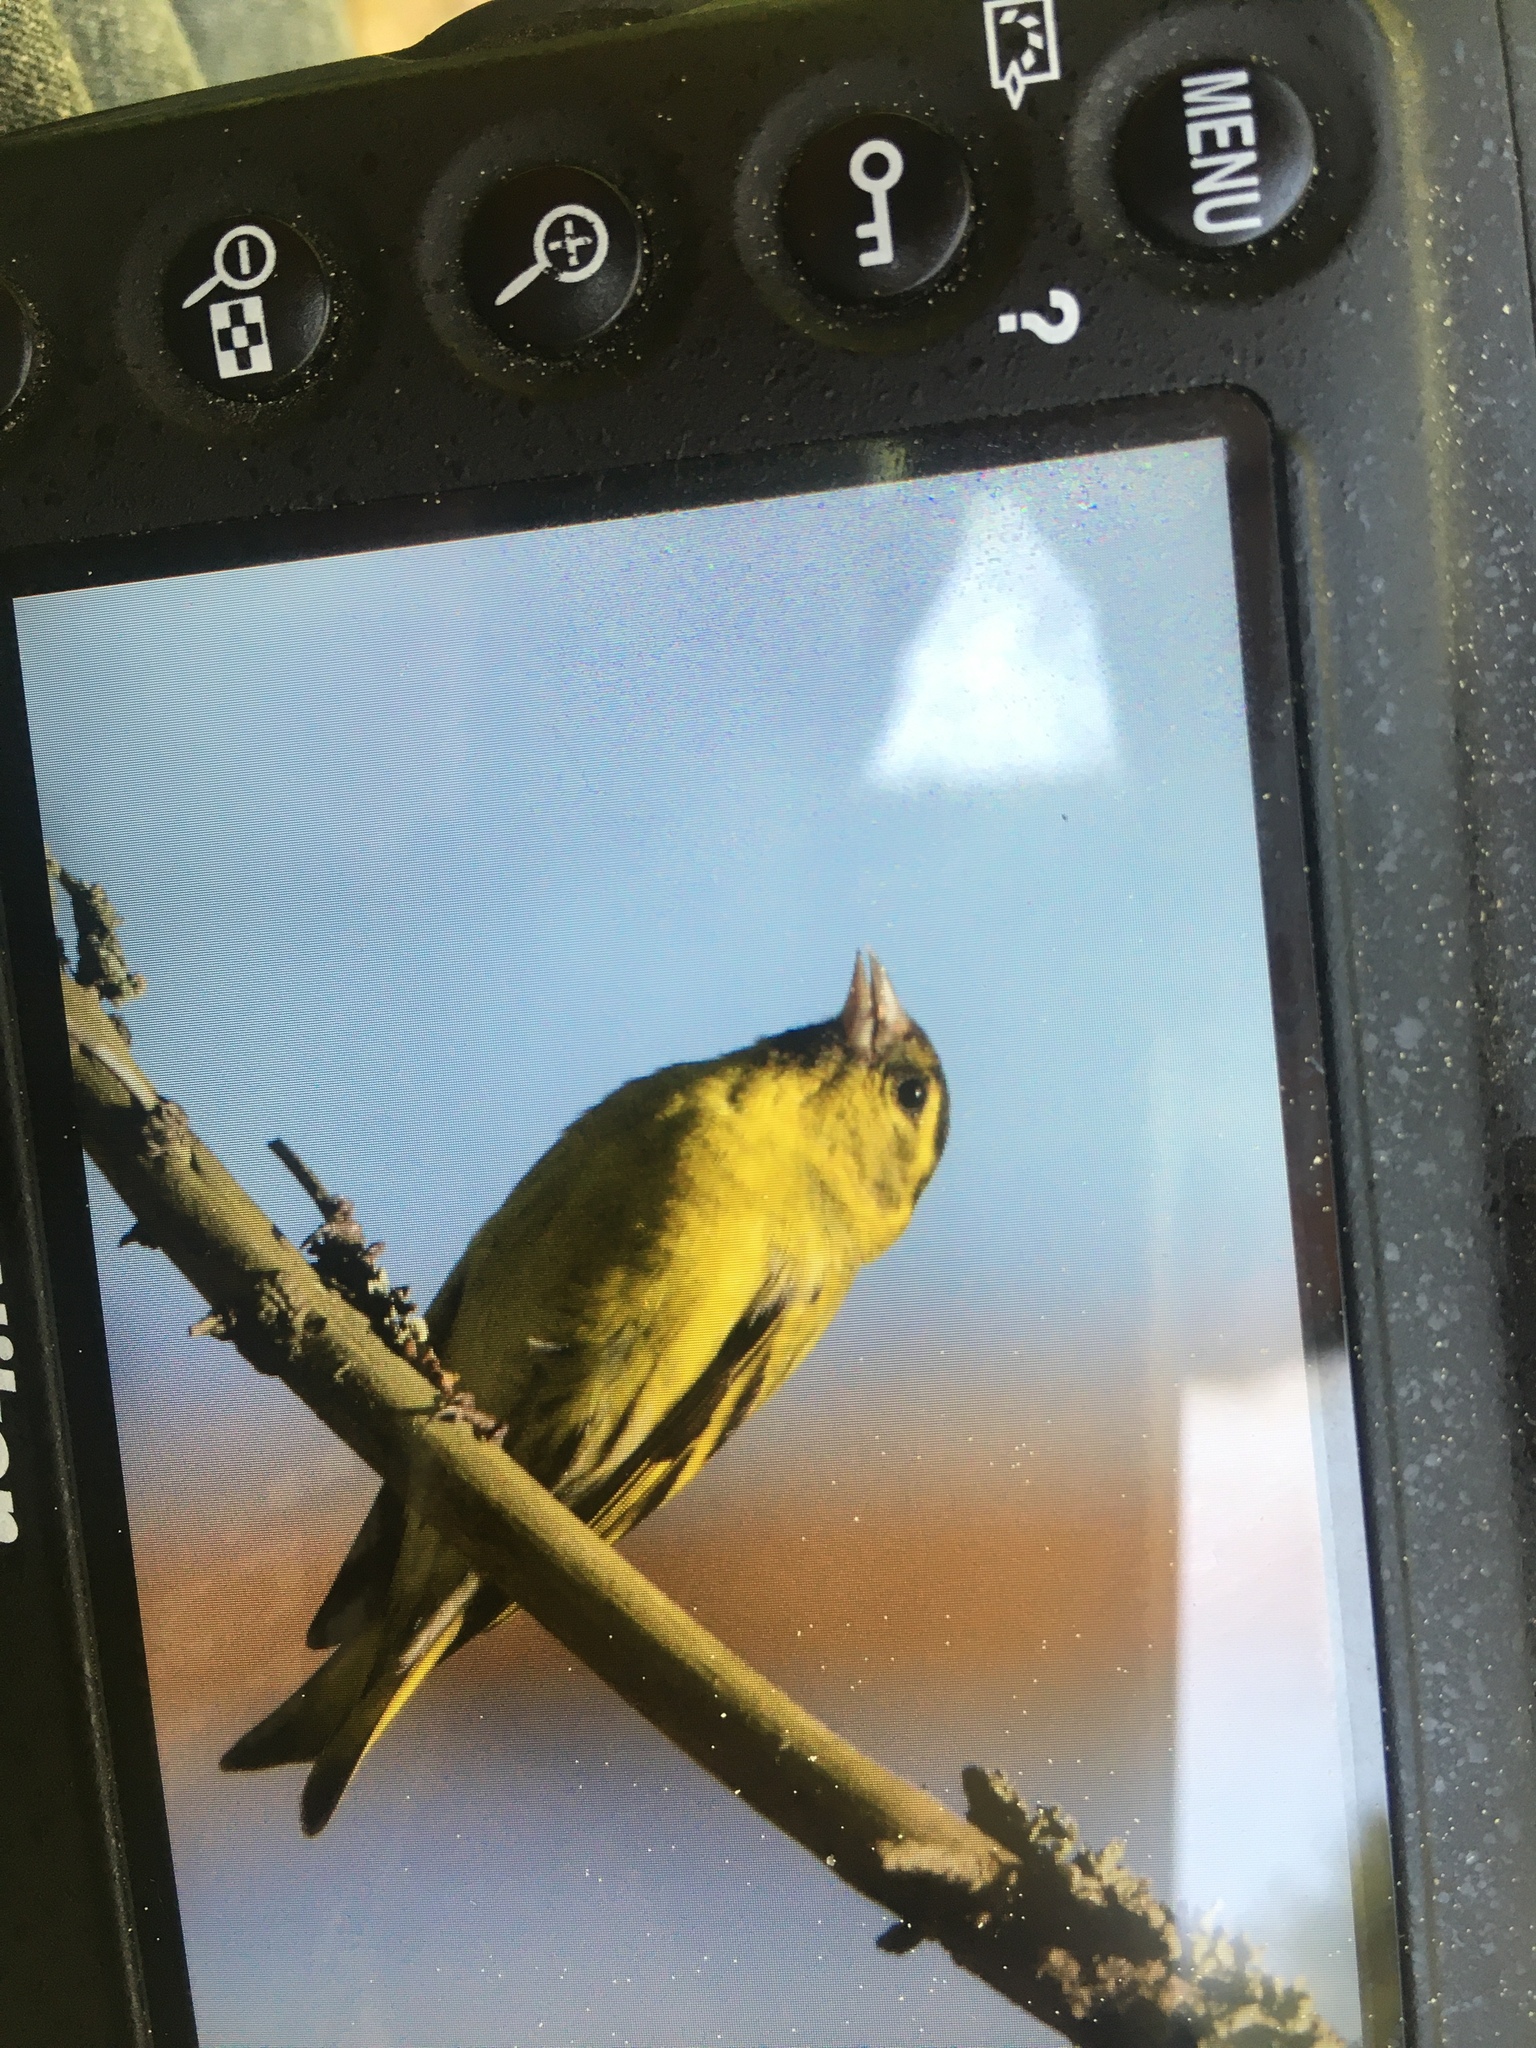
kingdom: Animalia
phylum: Chordata
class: Aves
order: Passeriformes
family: Fringillidae
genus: Spinus
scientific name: Spinus spinus
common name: Eurasian siskin
